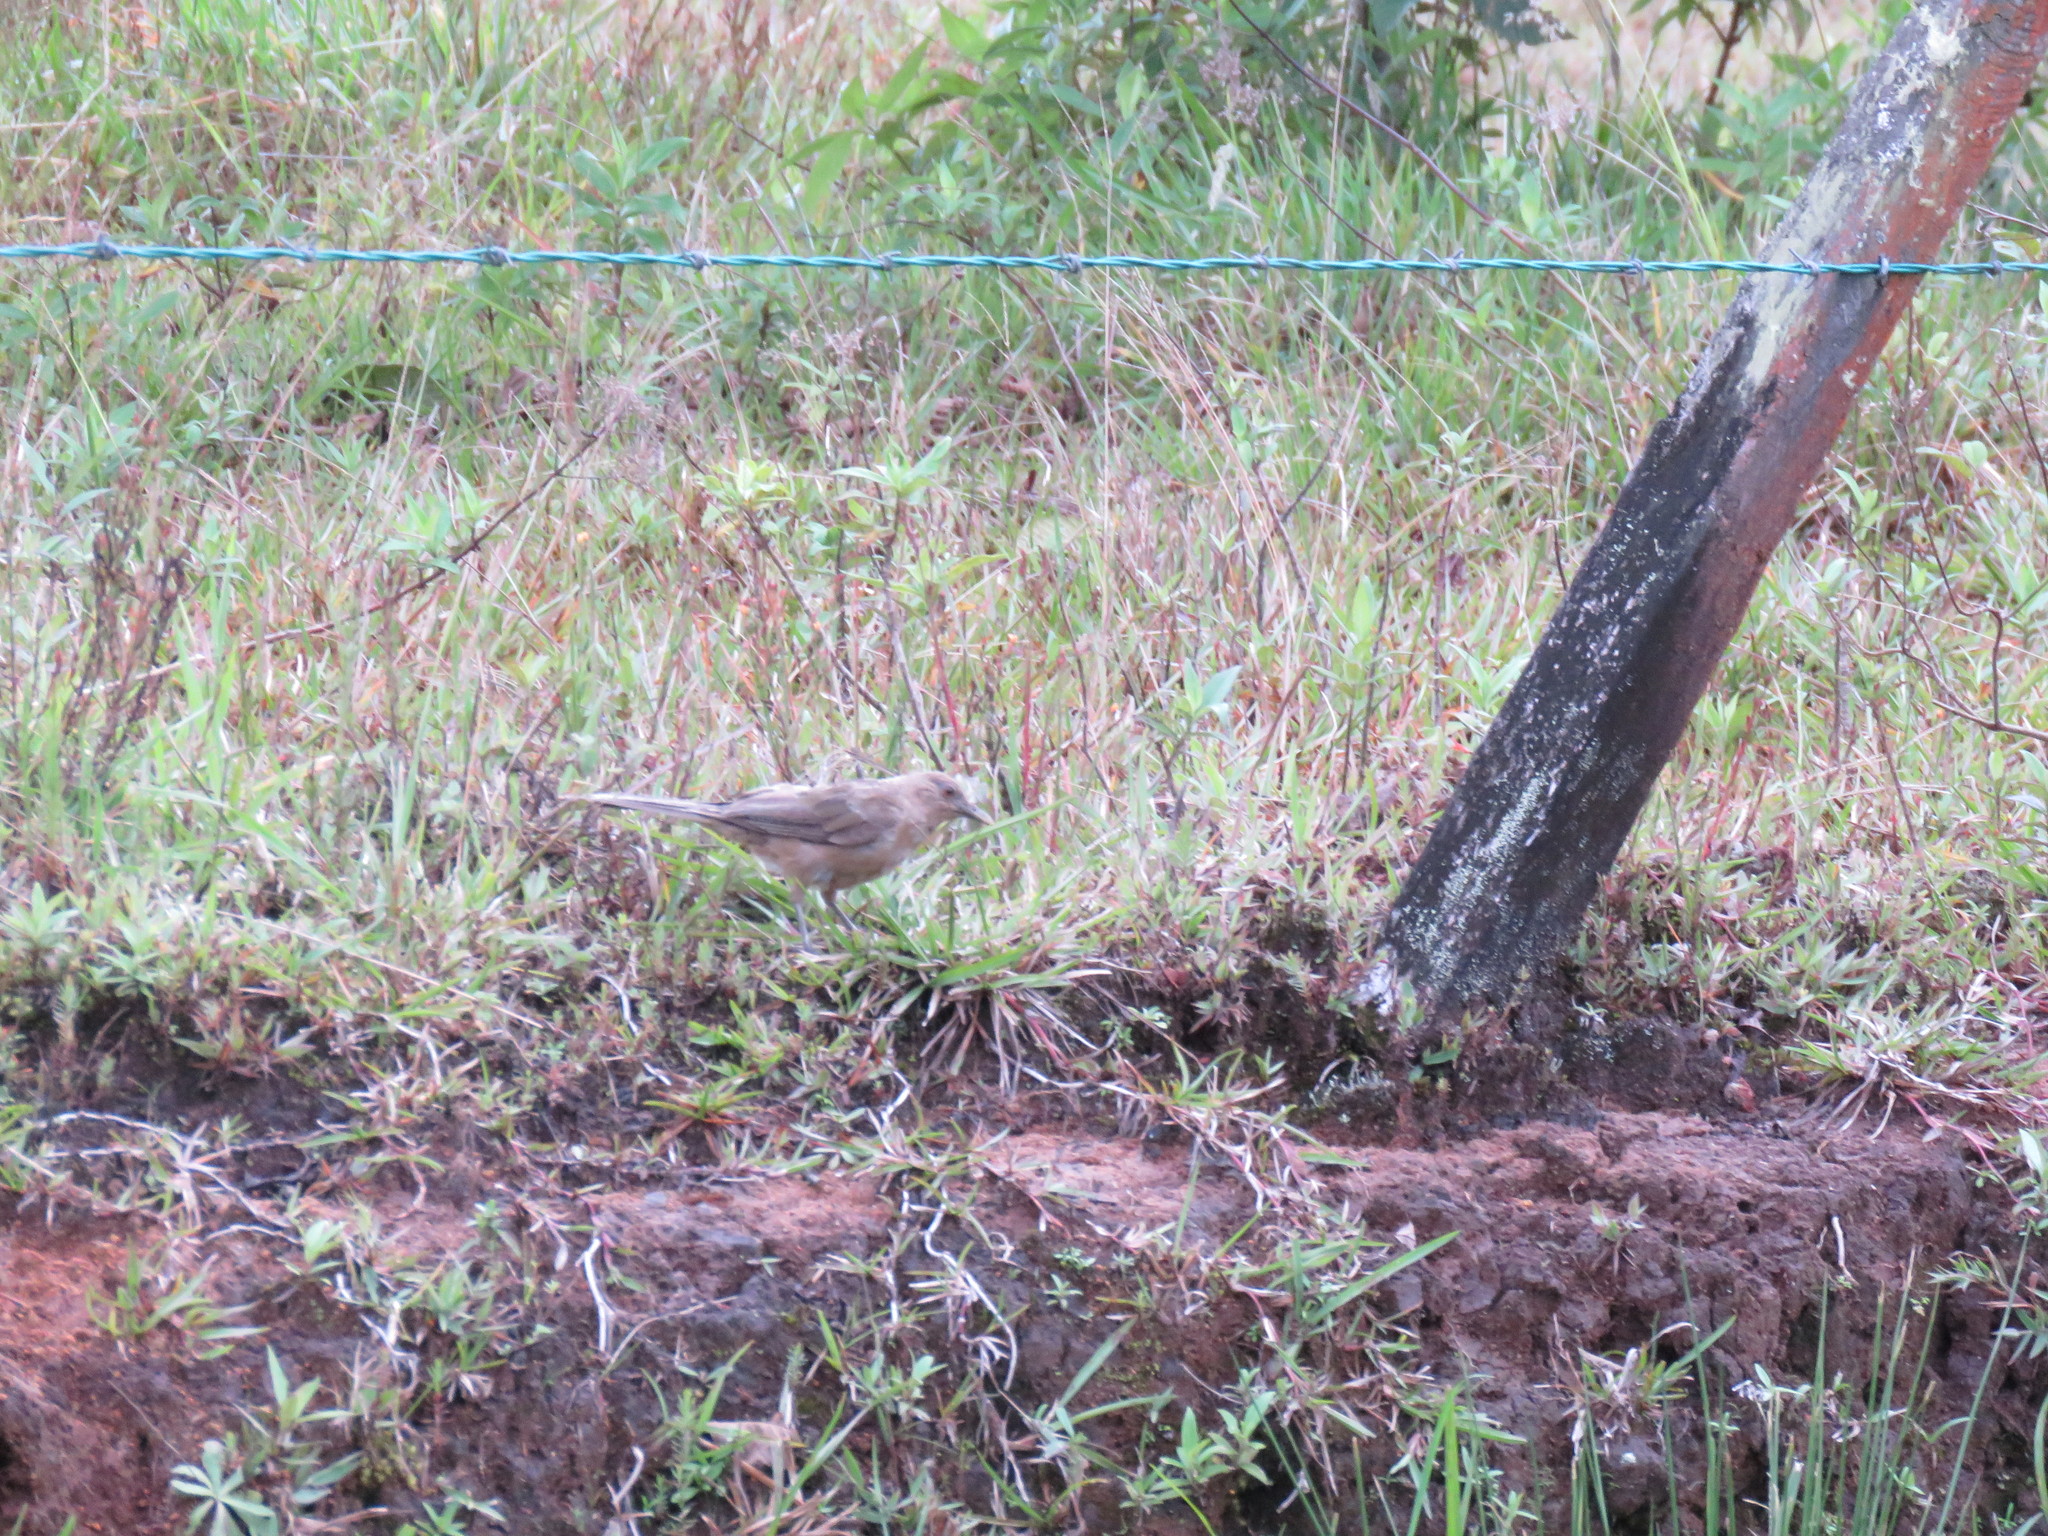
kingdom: Animalia
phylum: Chordata
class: Aves
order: Passeriformes
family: Turdidae
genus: Turdus
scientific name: Turdus grayi
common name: Clay-colored thrush
